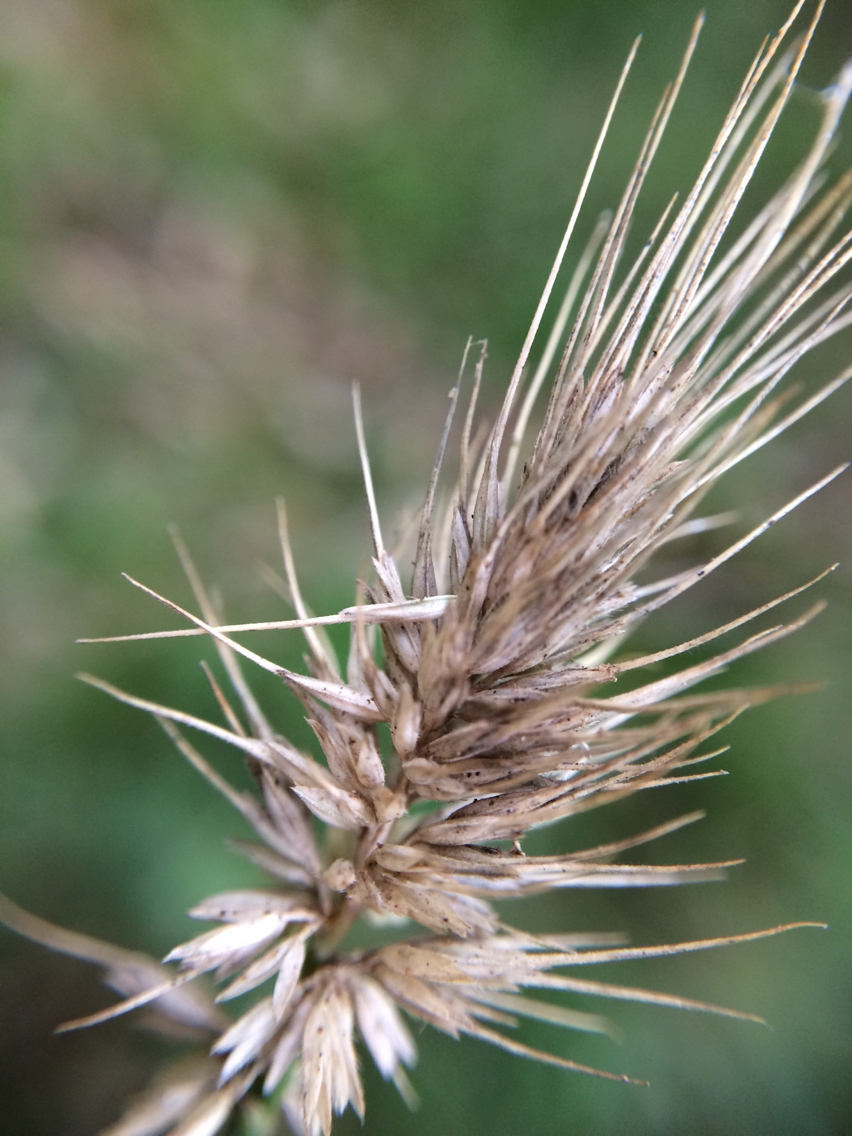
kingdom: Plantae
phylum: Tracheophyta
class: Liliopsida
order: Poales
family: Poaceae
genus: Echinopogon
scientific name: Echinopogon ovatus
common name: Hedgehog-grass
